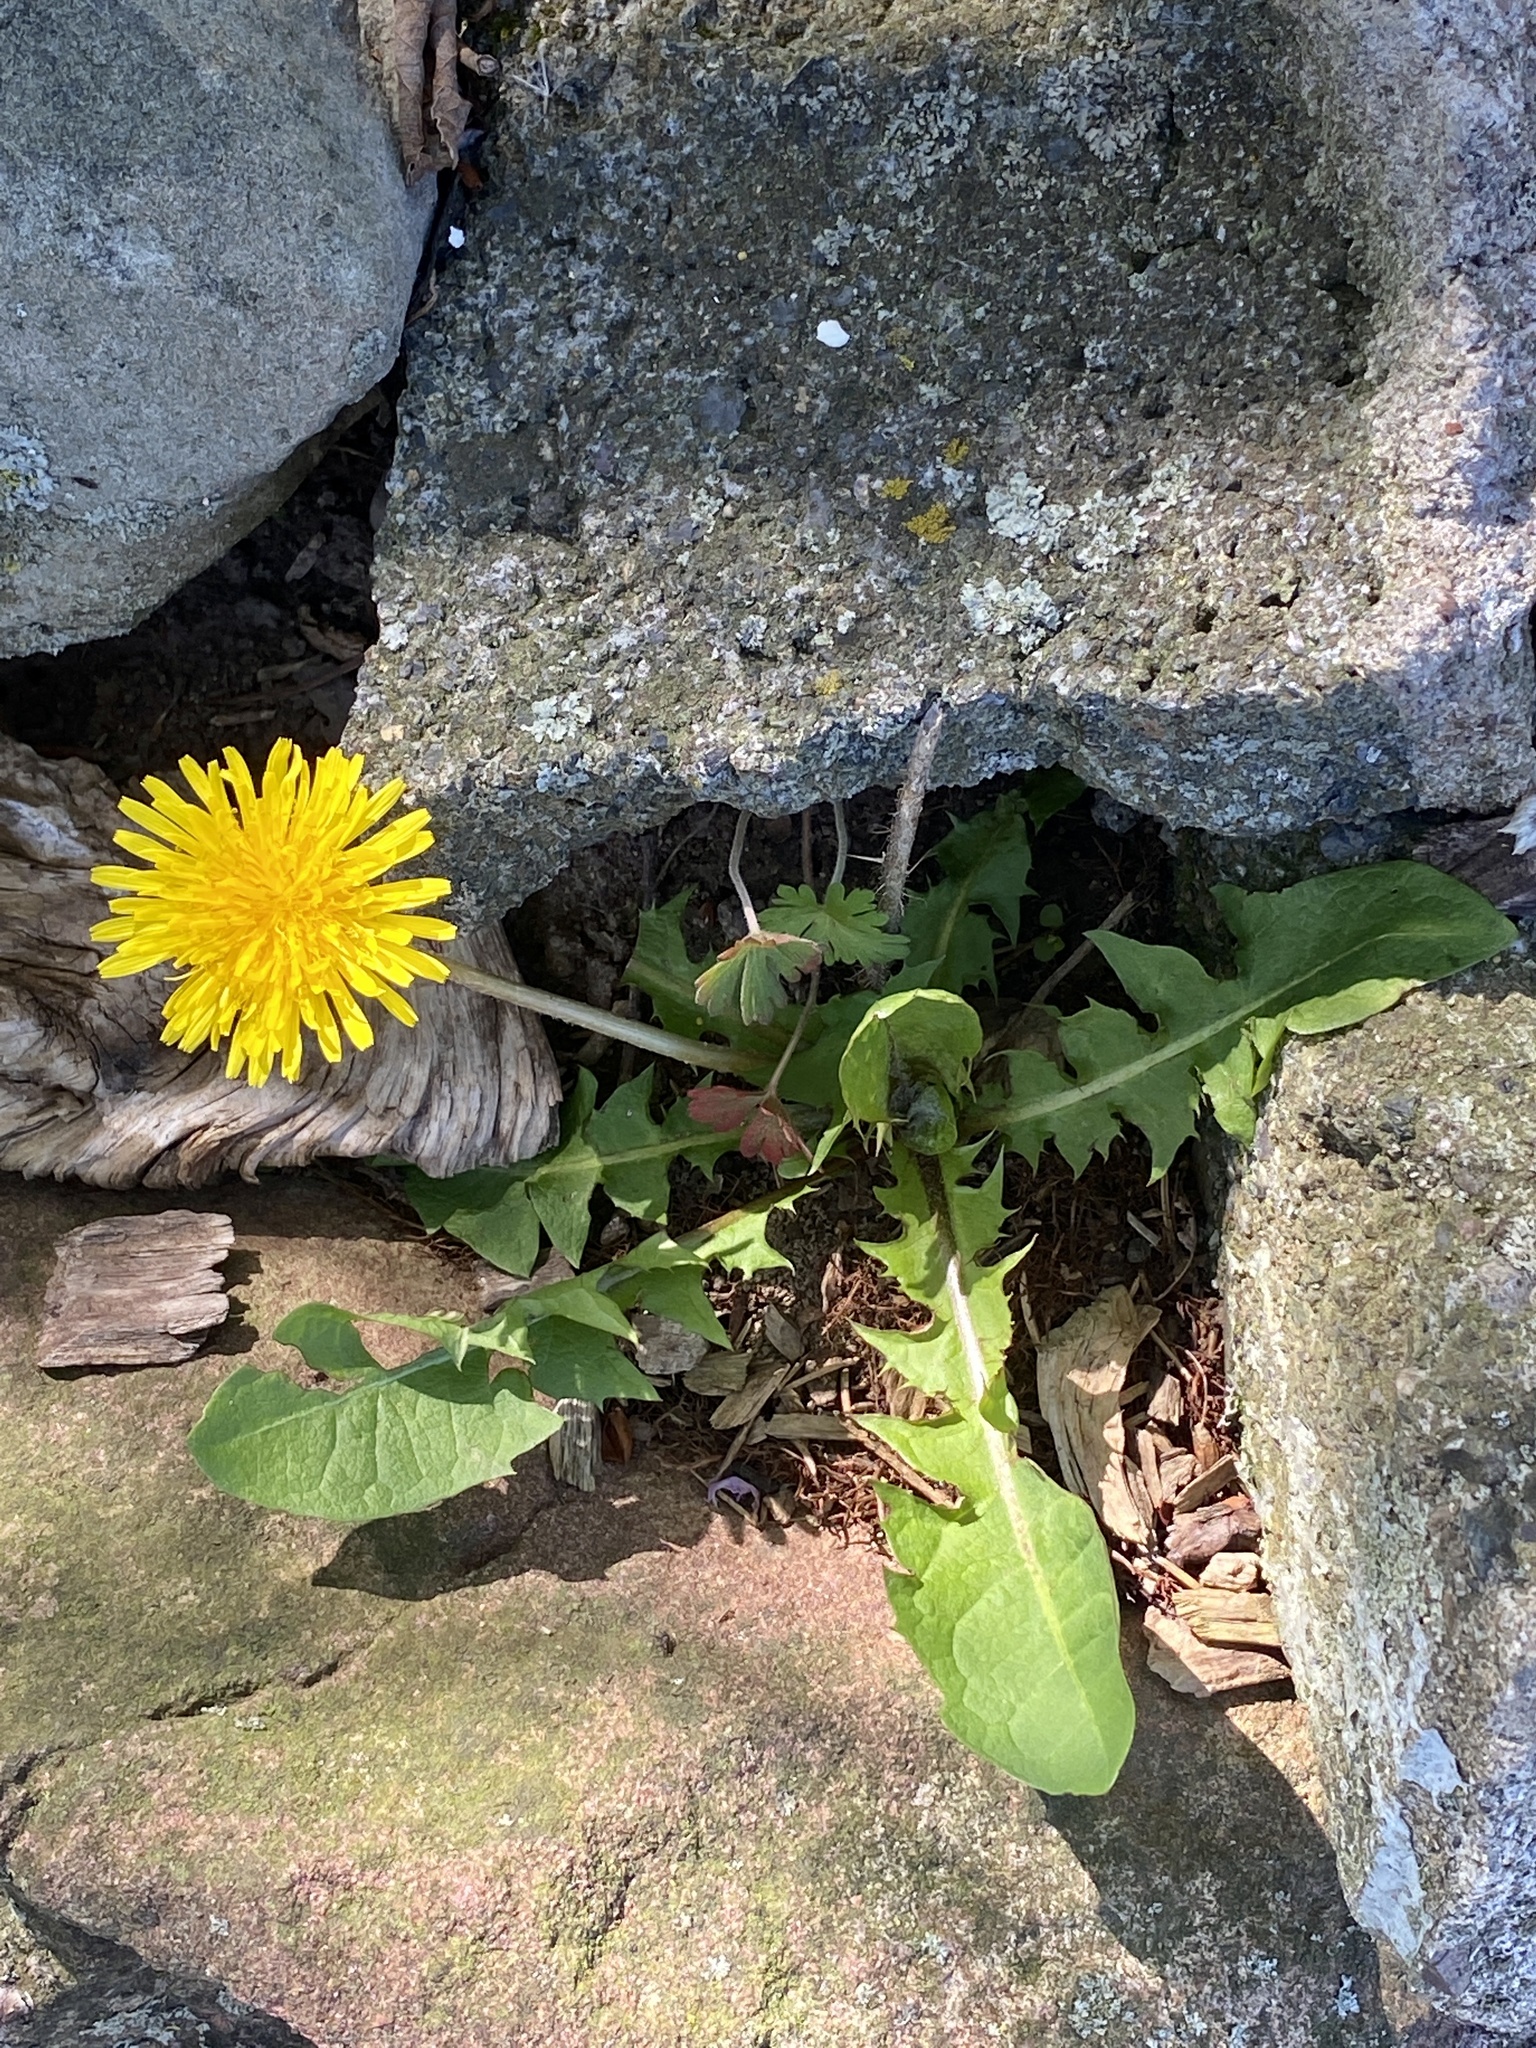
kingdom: Plantae
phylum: Tracheophyta
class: Magnoliopsida
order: Asterales
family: Asteraceae
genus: Taraxacum
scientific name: Taraxacum
